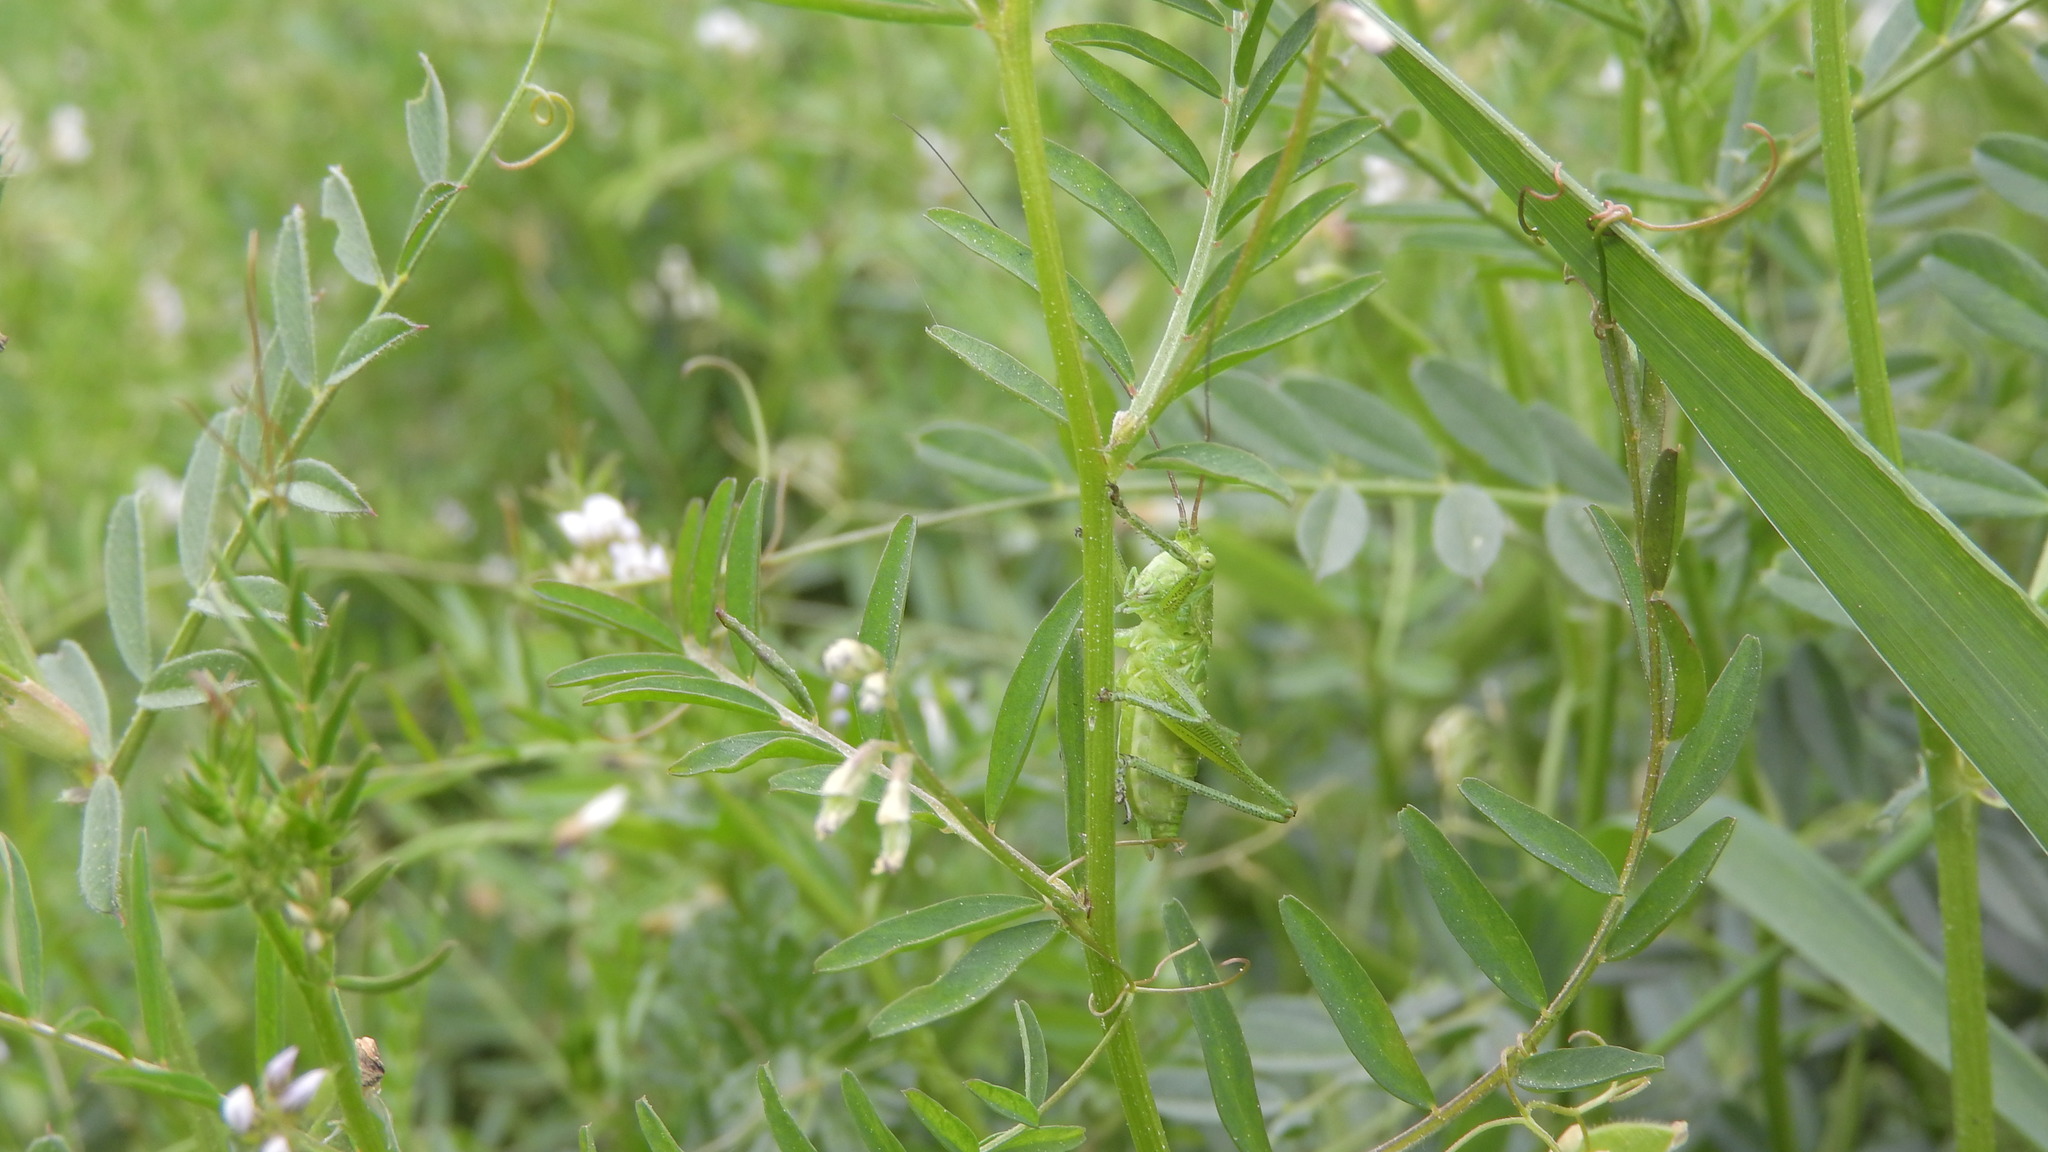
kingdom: Animalia
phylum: Arthropoda
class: Insecta
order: Orthoptera
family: Tettigoniidae
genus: Tettigonia
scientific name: Tettigonia viridissima
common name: Great green bush-cricket
